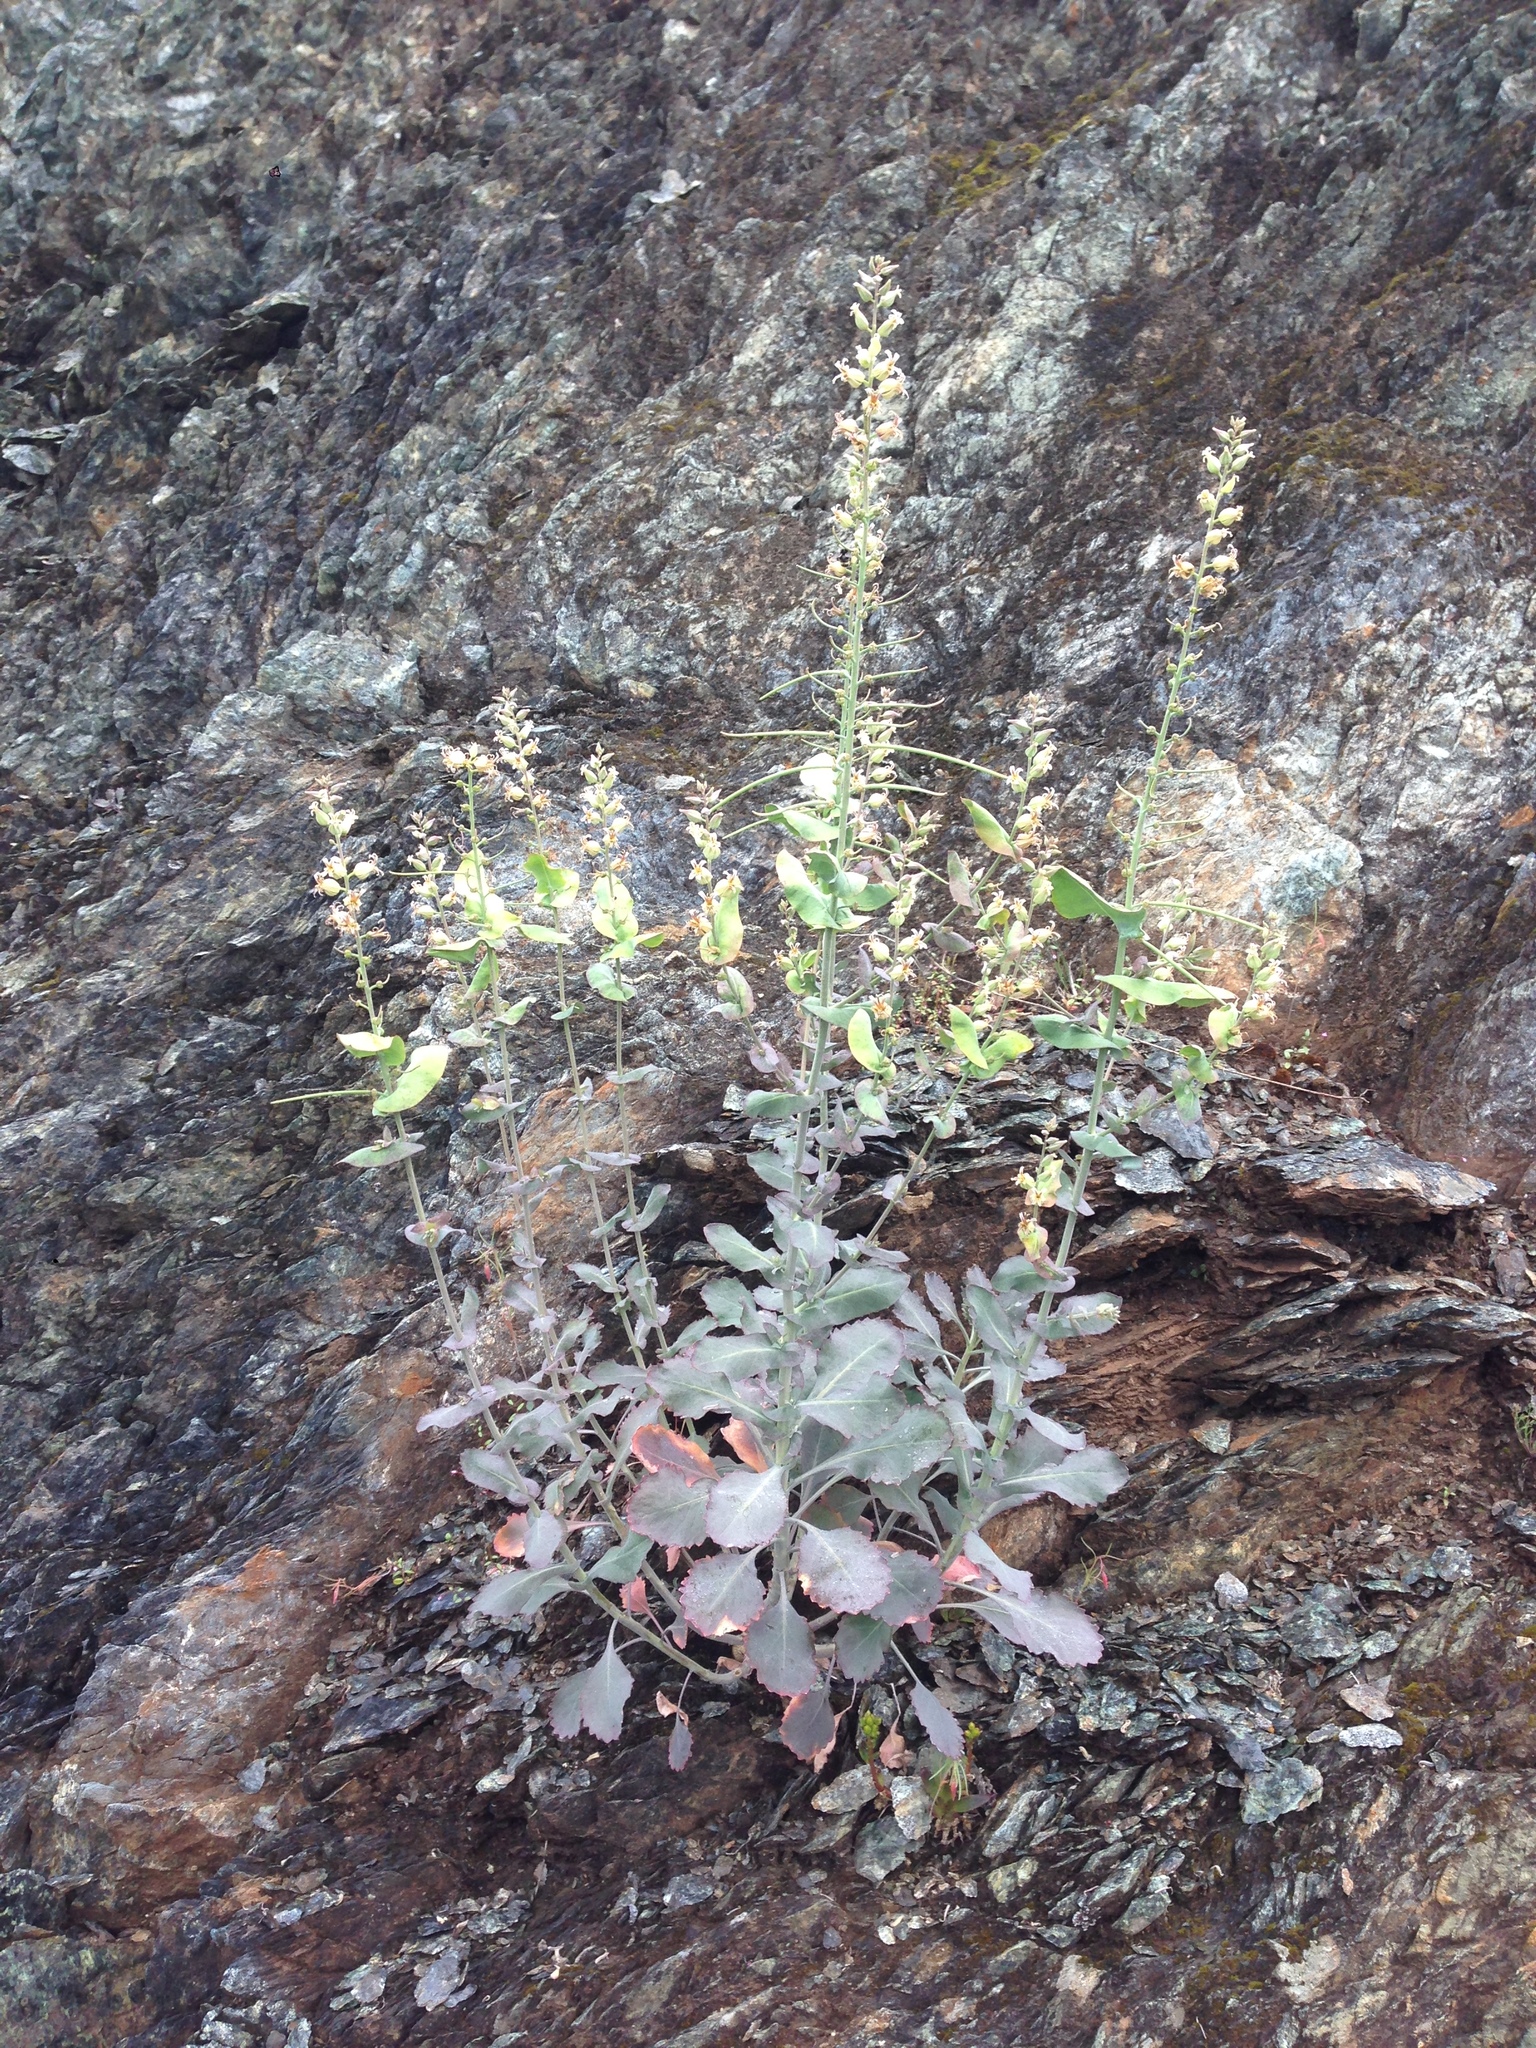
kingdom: Plantae
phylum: Tracheophyta
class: Magnoliopsida
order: Brassicales
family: Brassicaceae
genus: Streptanthus
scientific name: Streptanthus tortuosus
